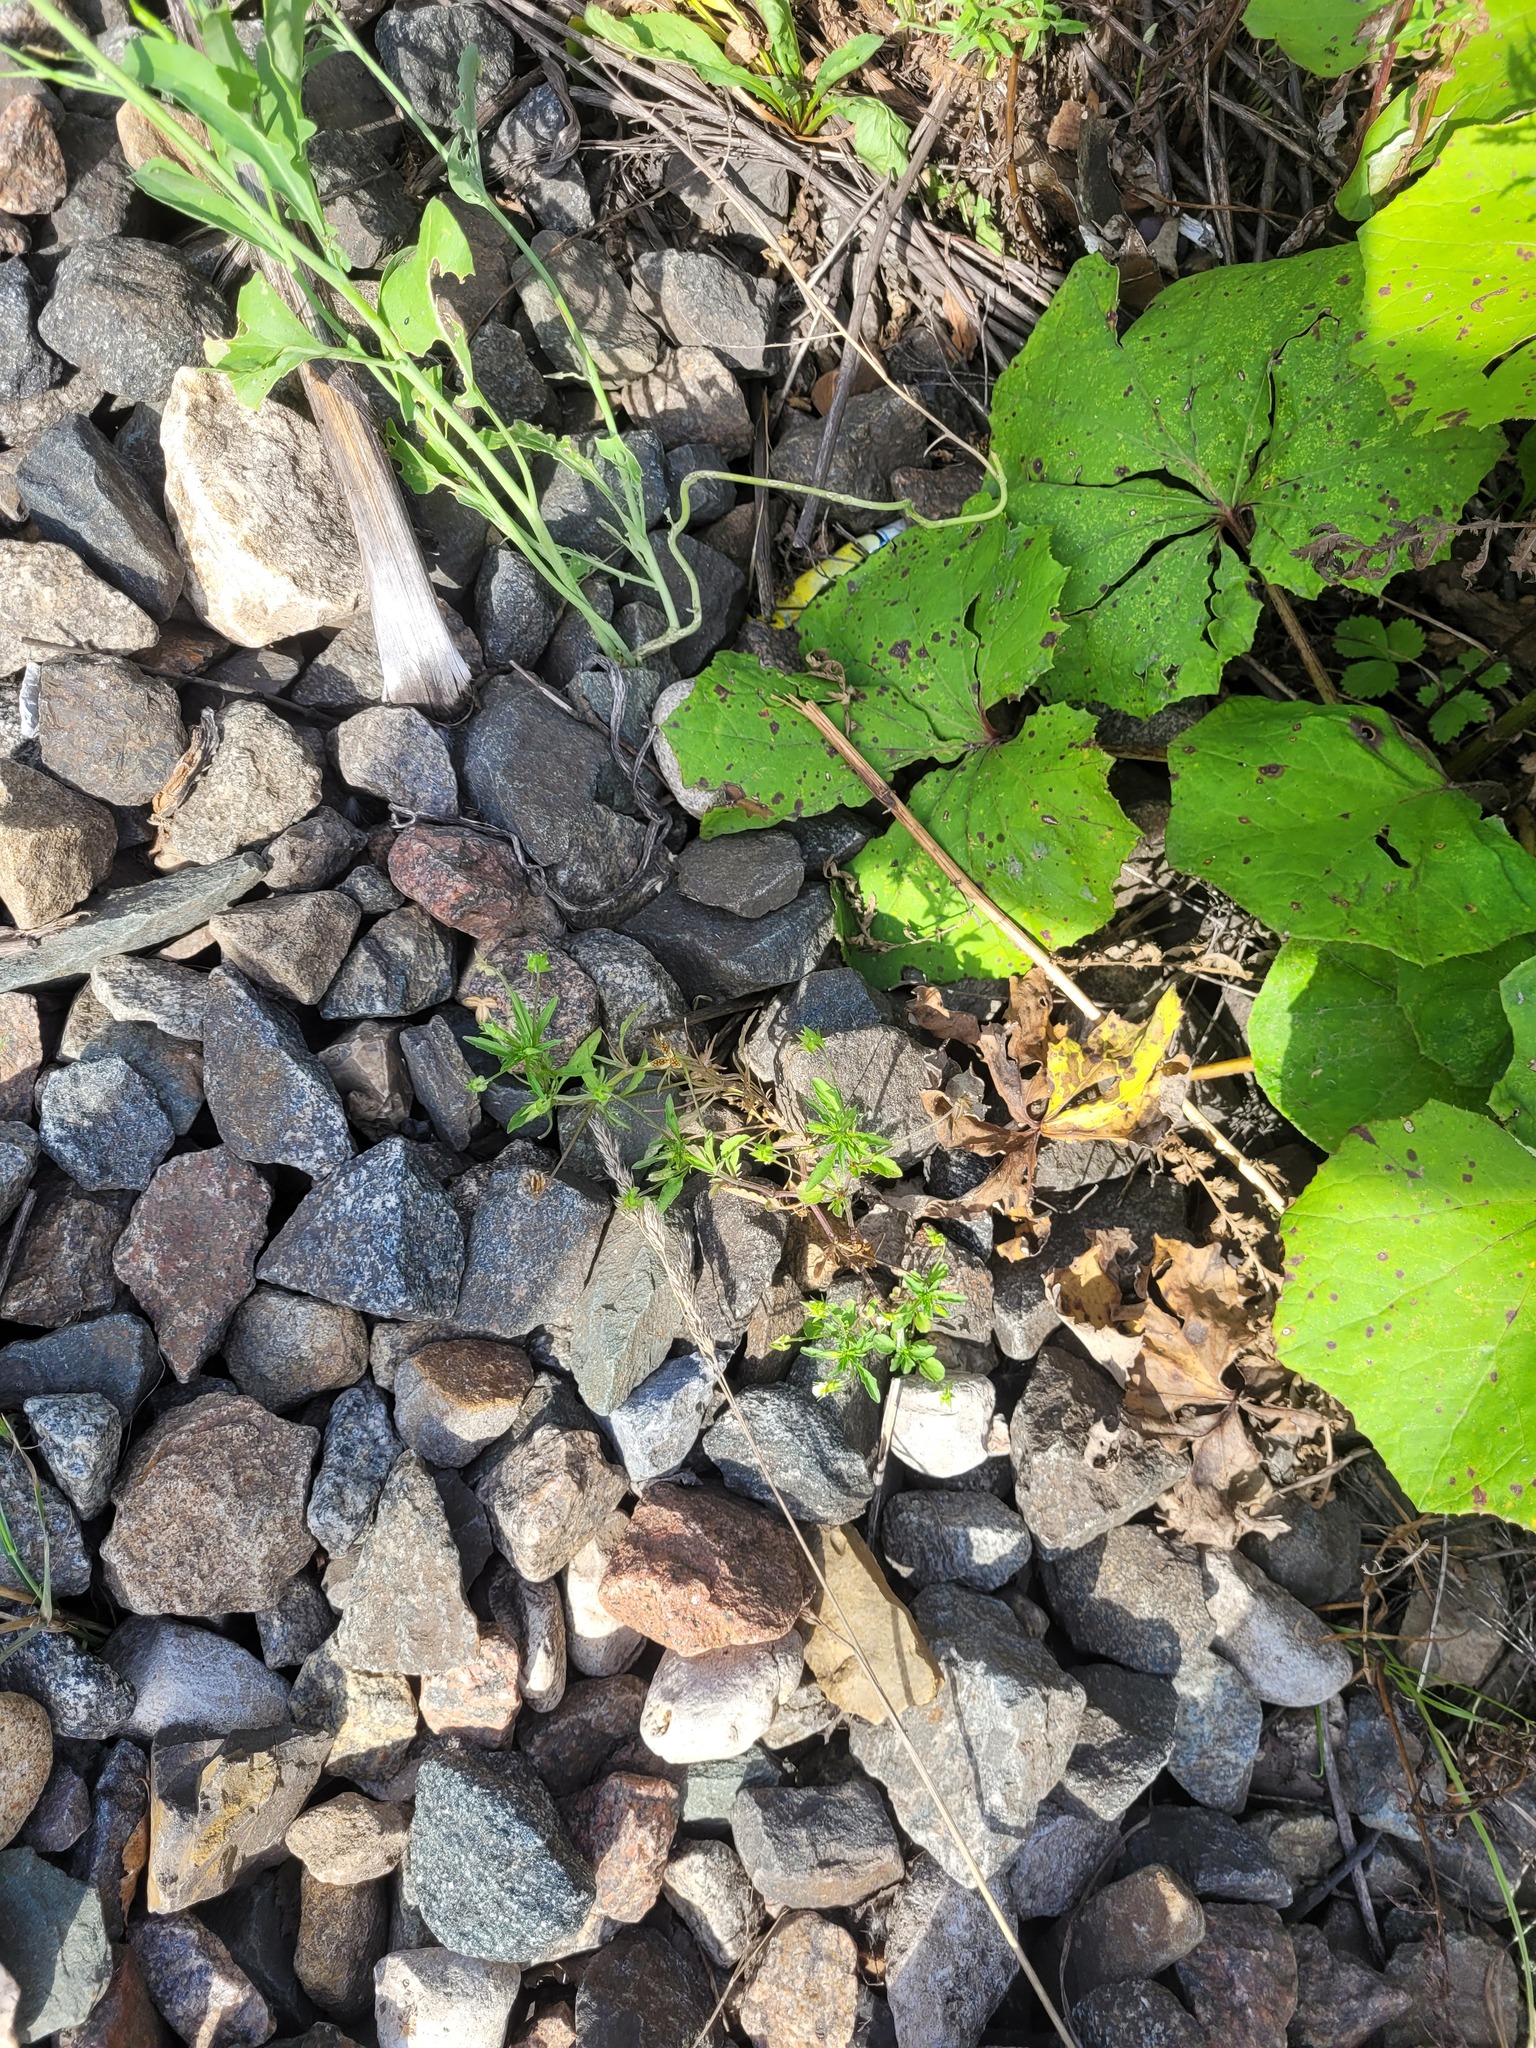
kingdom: Plantae
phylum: Tracheophyta
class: Magnoliopsida
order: Malpighiales
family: Violaceae
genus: Viola
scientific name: Viola arvensis
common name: Field pansy
